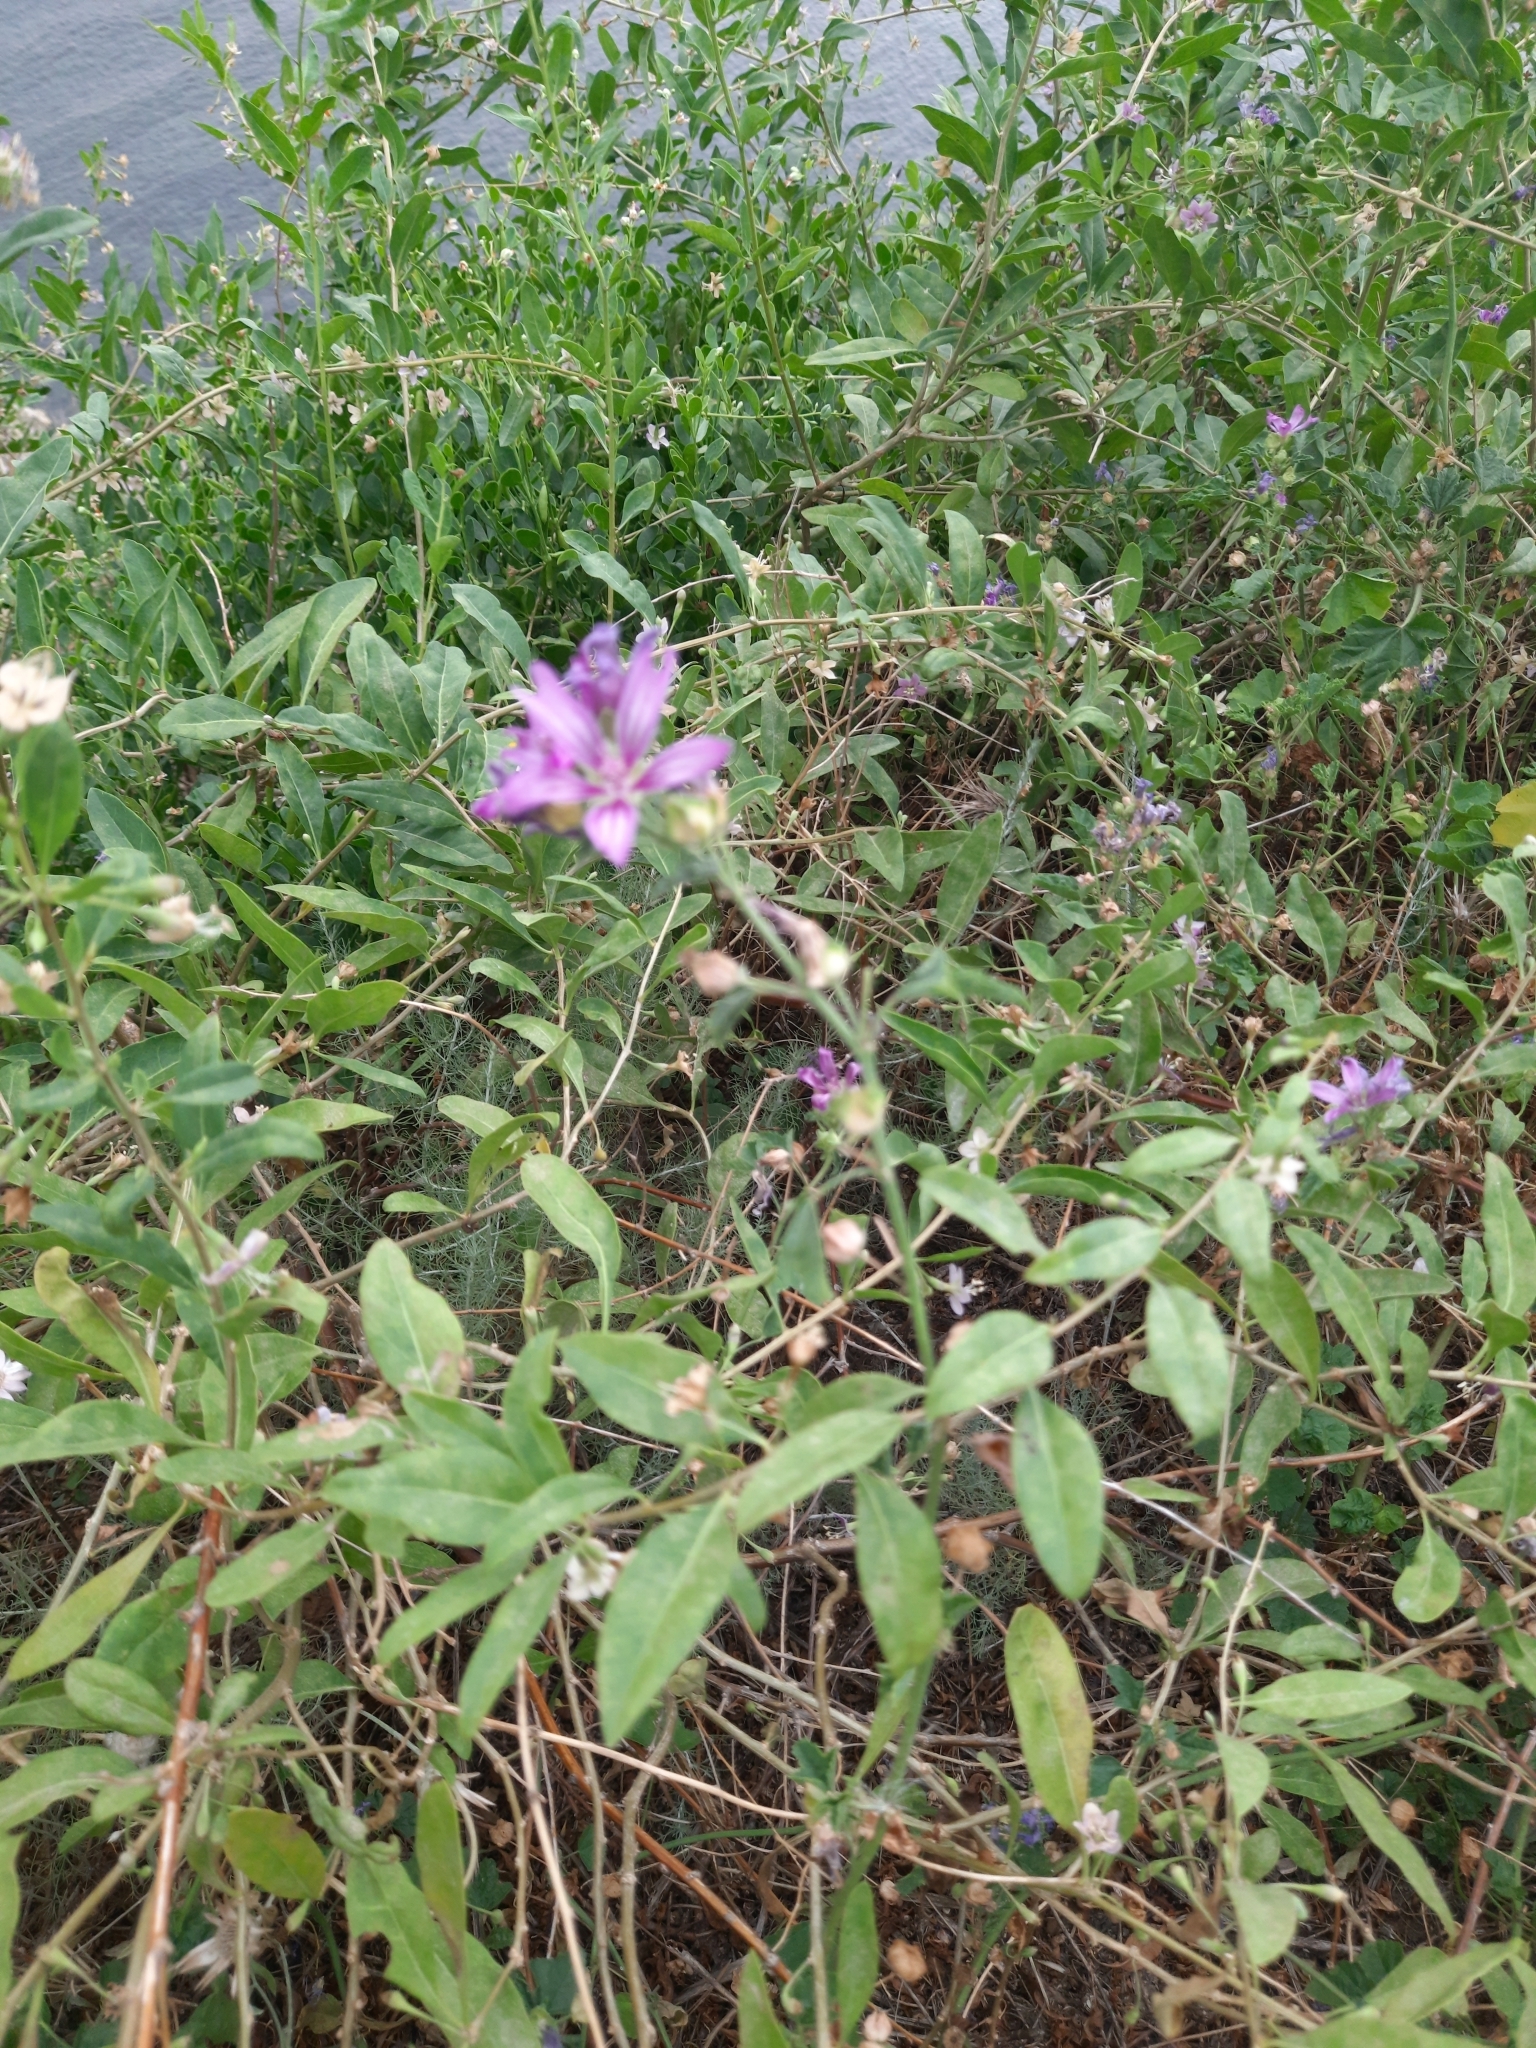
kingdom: Plantae
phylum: Tracheophyta
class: Magnoliopsida
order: Solanales
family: Solanaceae
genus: Lycium
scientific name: Lycium barbarum
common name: Duke of argyll's teaplant
